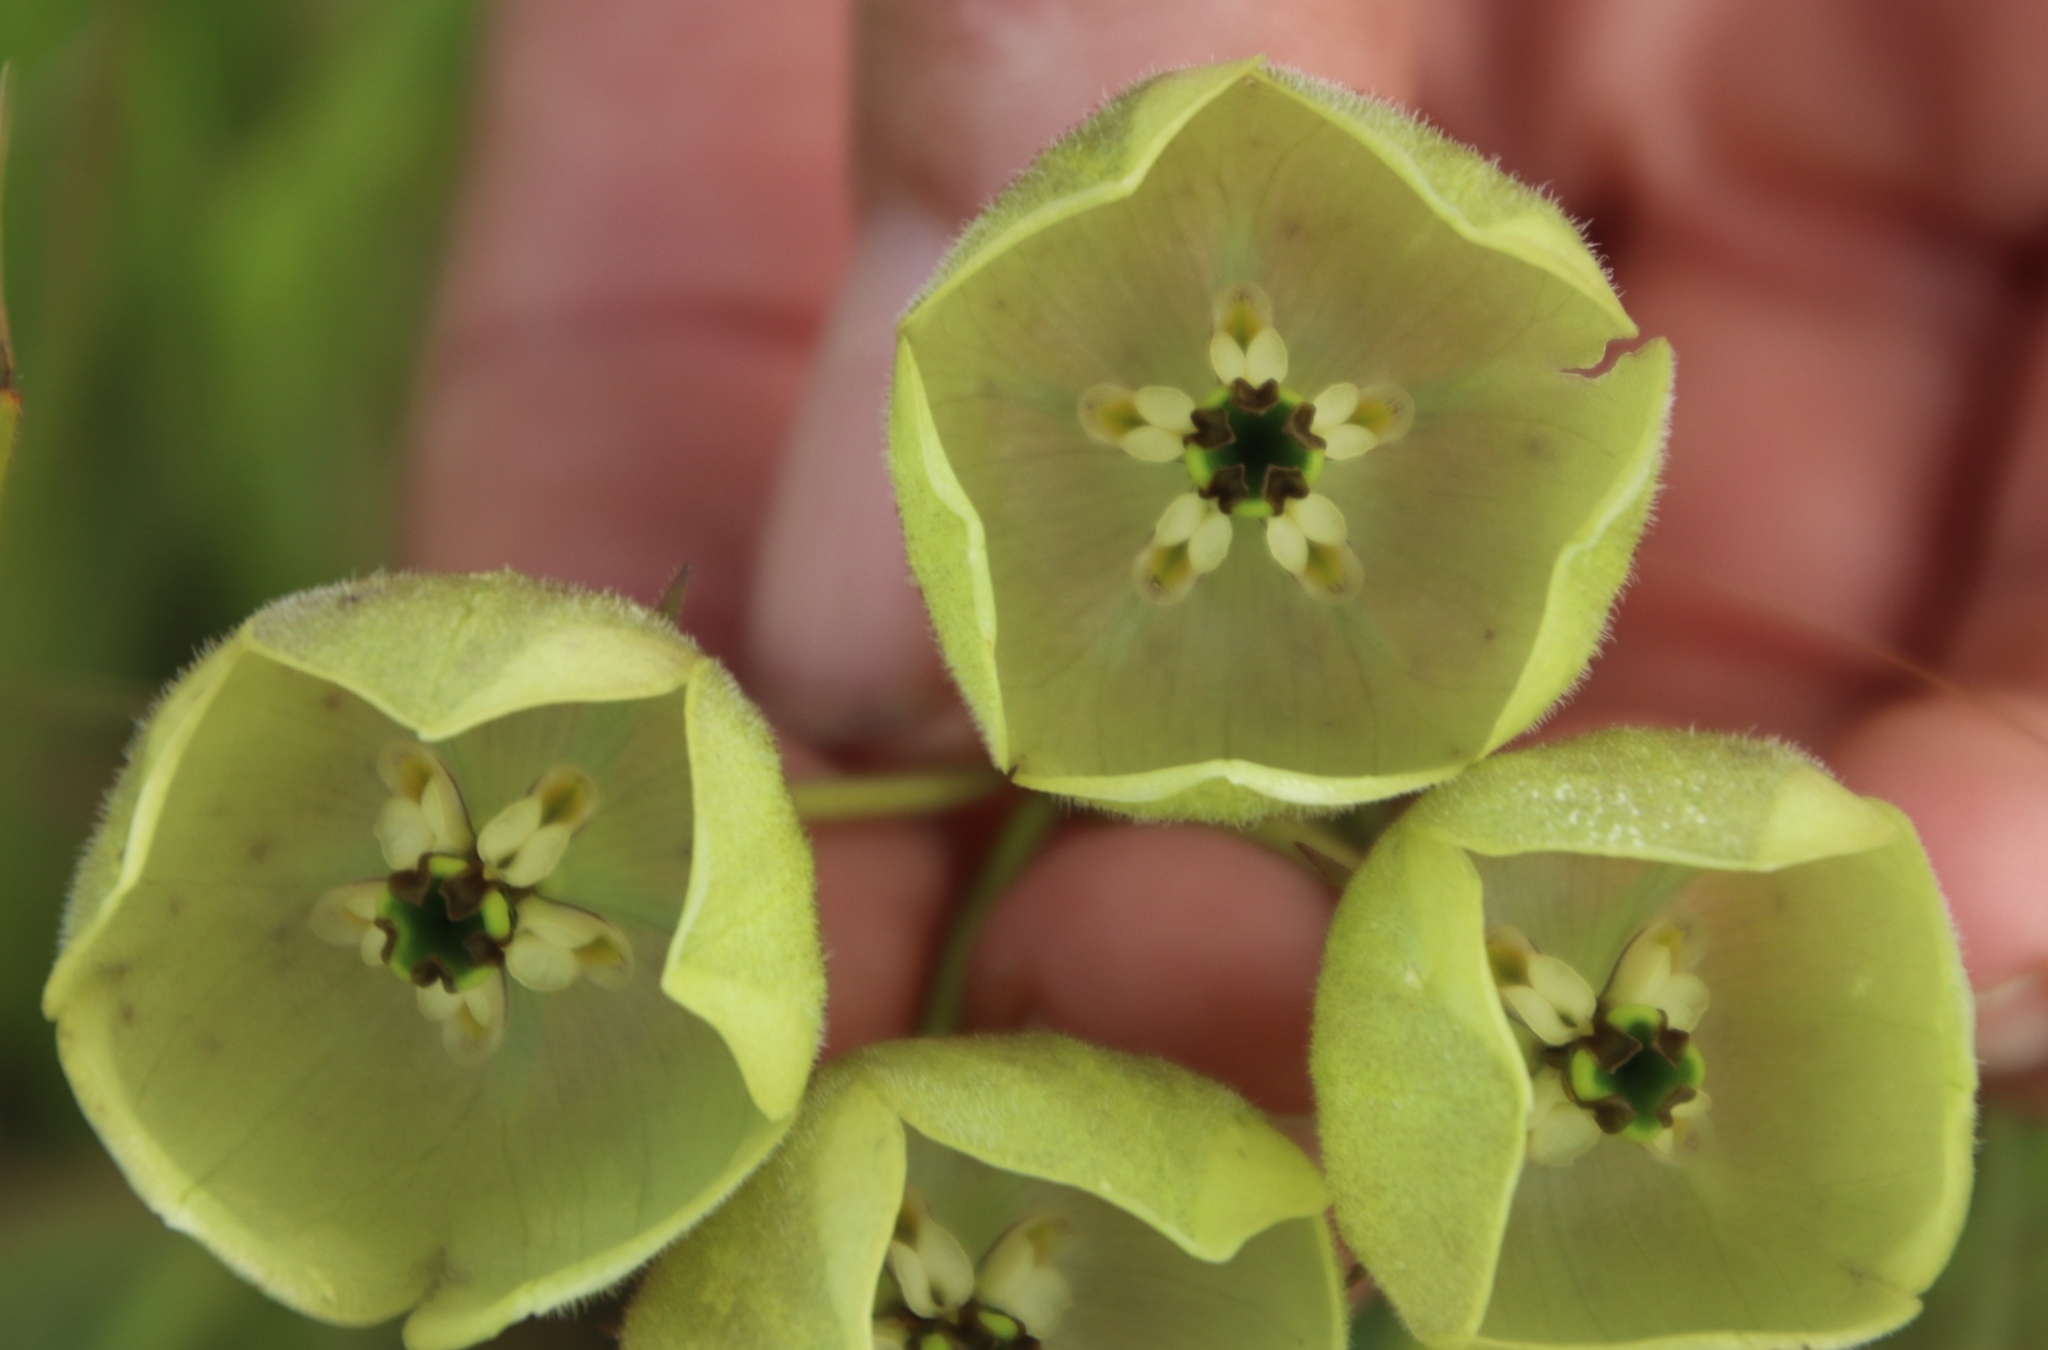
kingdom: Plantae
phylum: Tracheophyta
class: Magnoliopsida
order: Gentianales
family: Apocynaceae
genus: Pachycarpus
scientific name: Pachycarpus campanulatus
